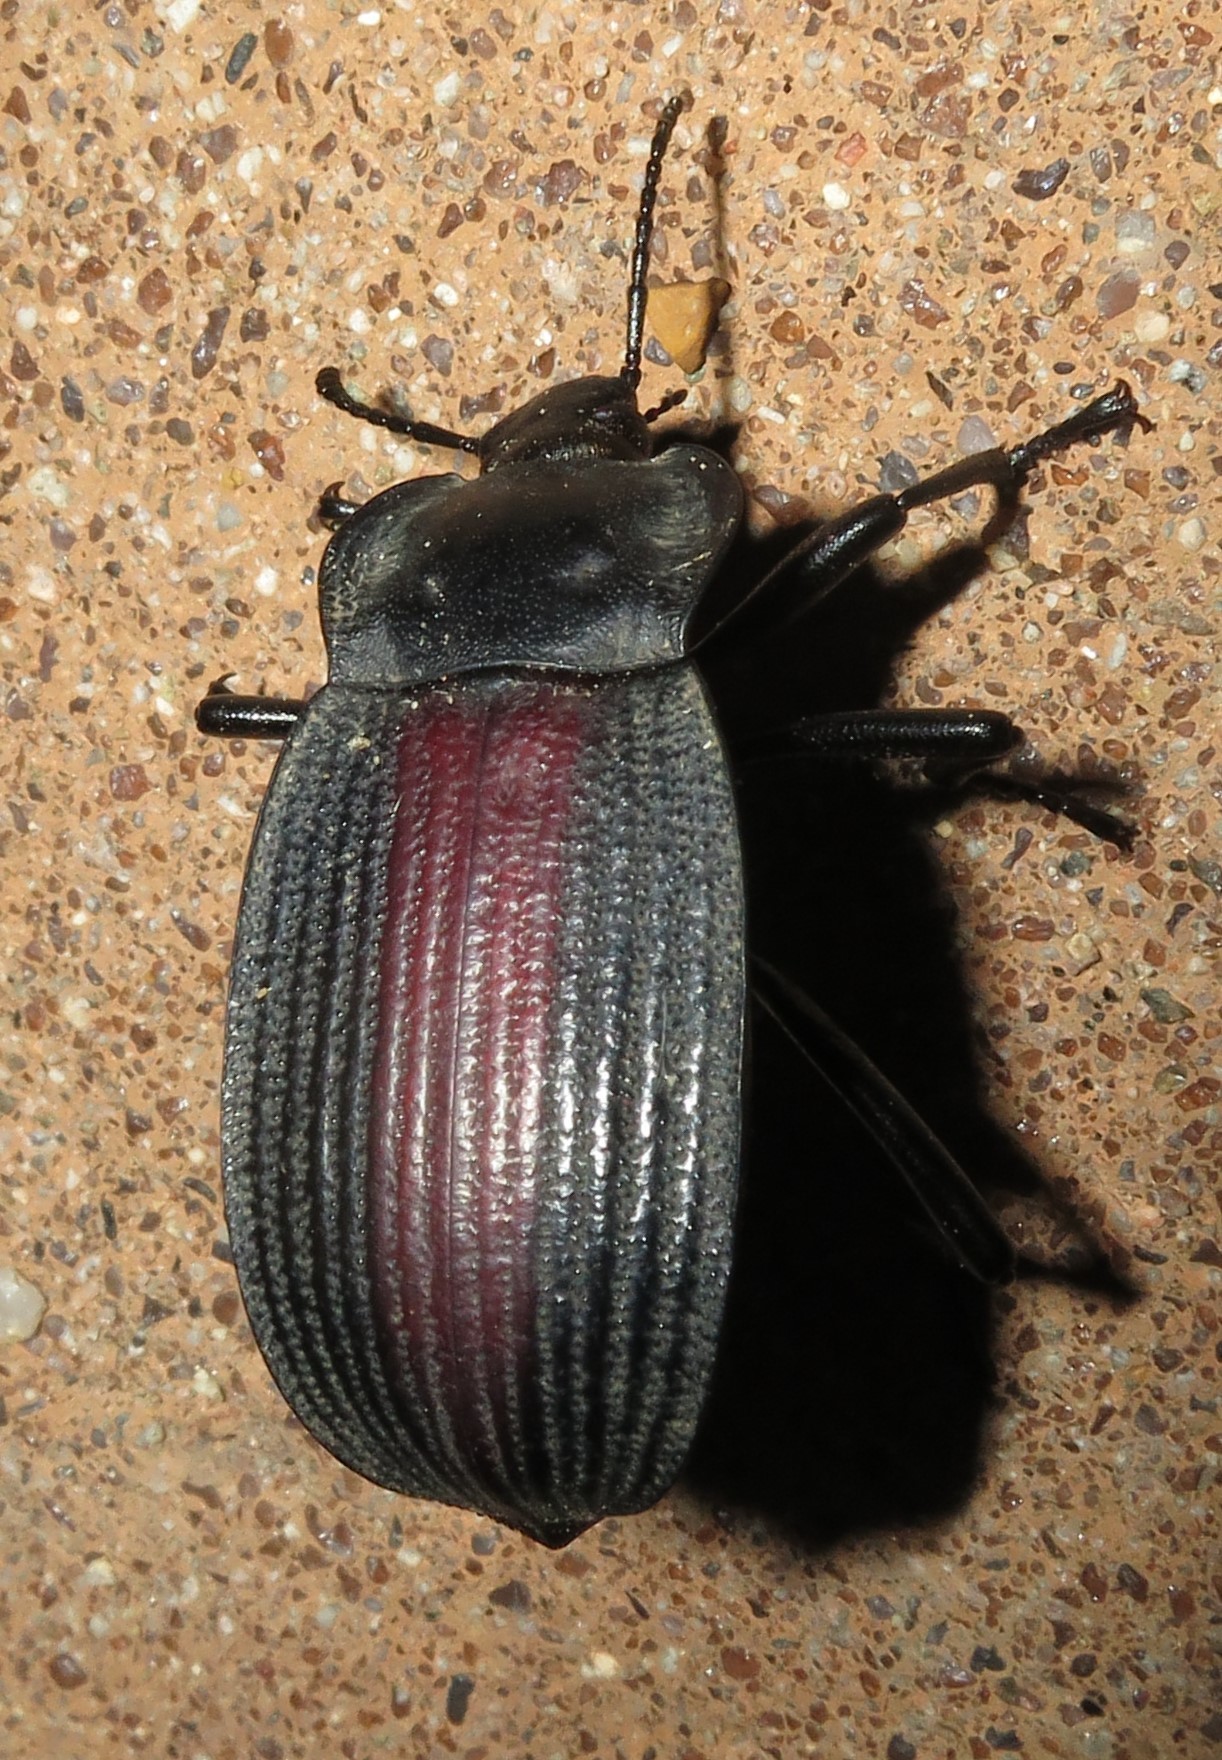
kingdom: Animalia
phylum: Arthropoda
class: Insecta
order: Coleoptera
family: Tenebrionidae
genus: Eleodes
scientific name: Eleodes suturalis
